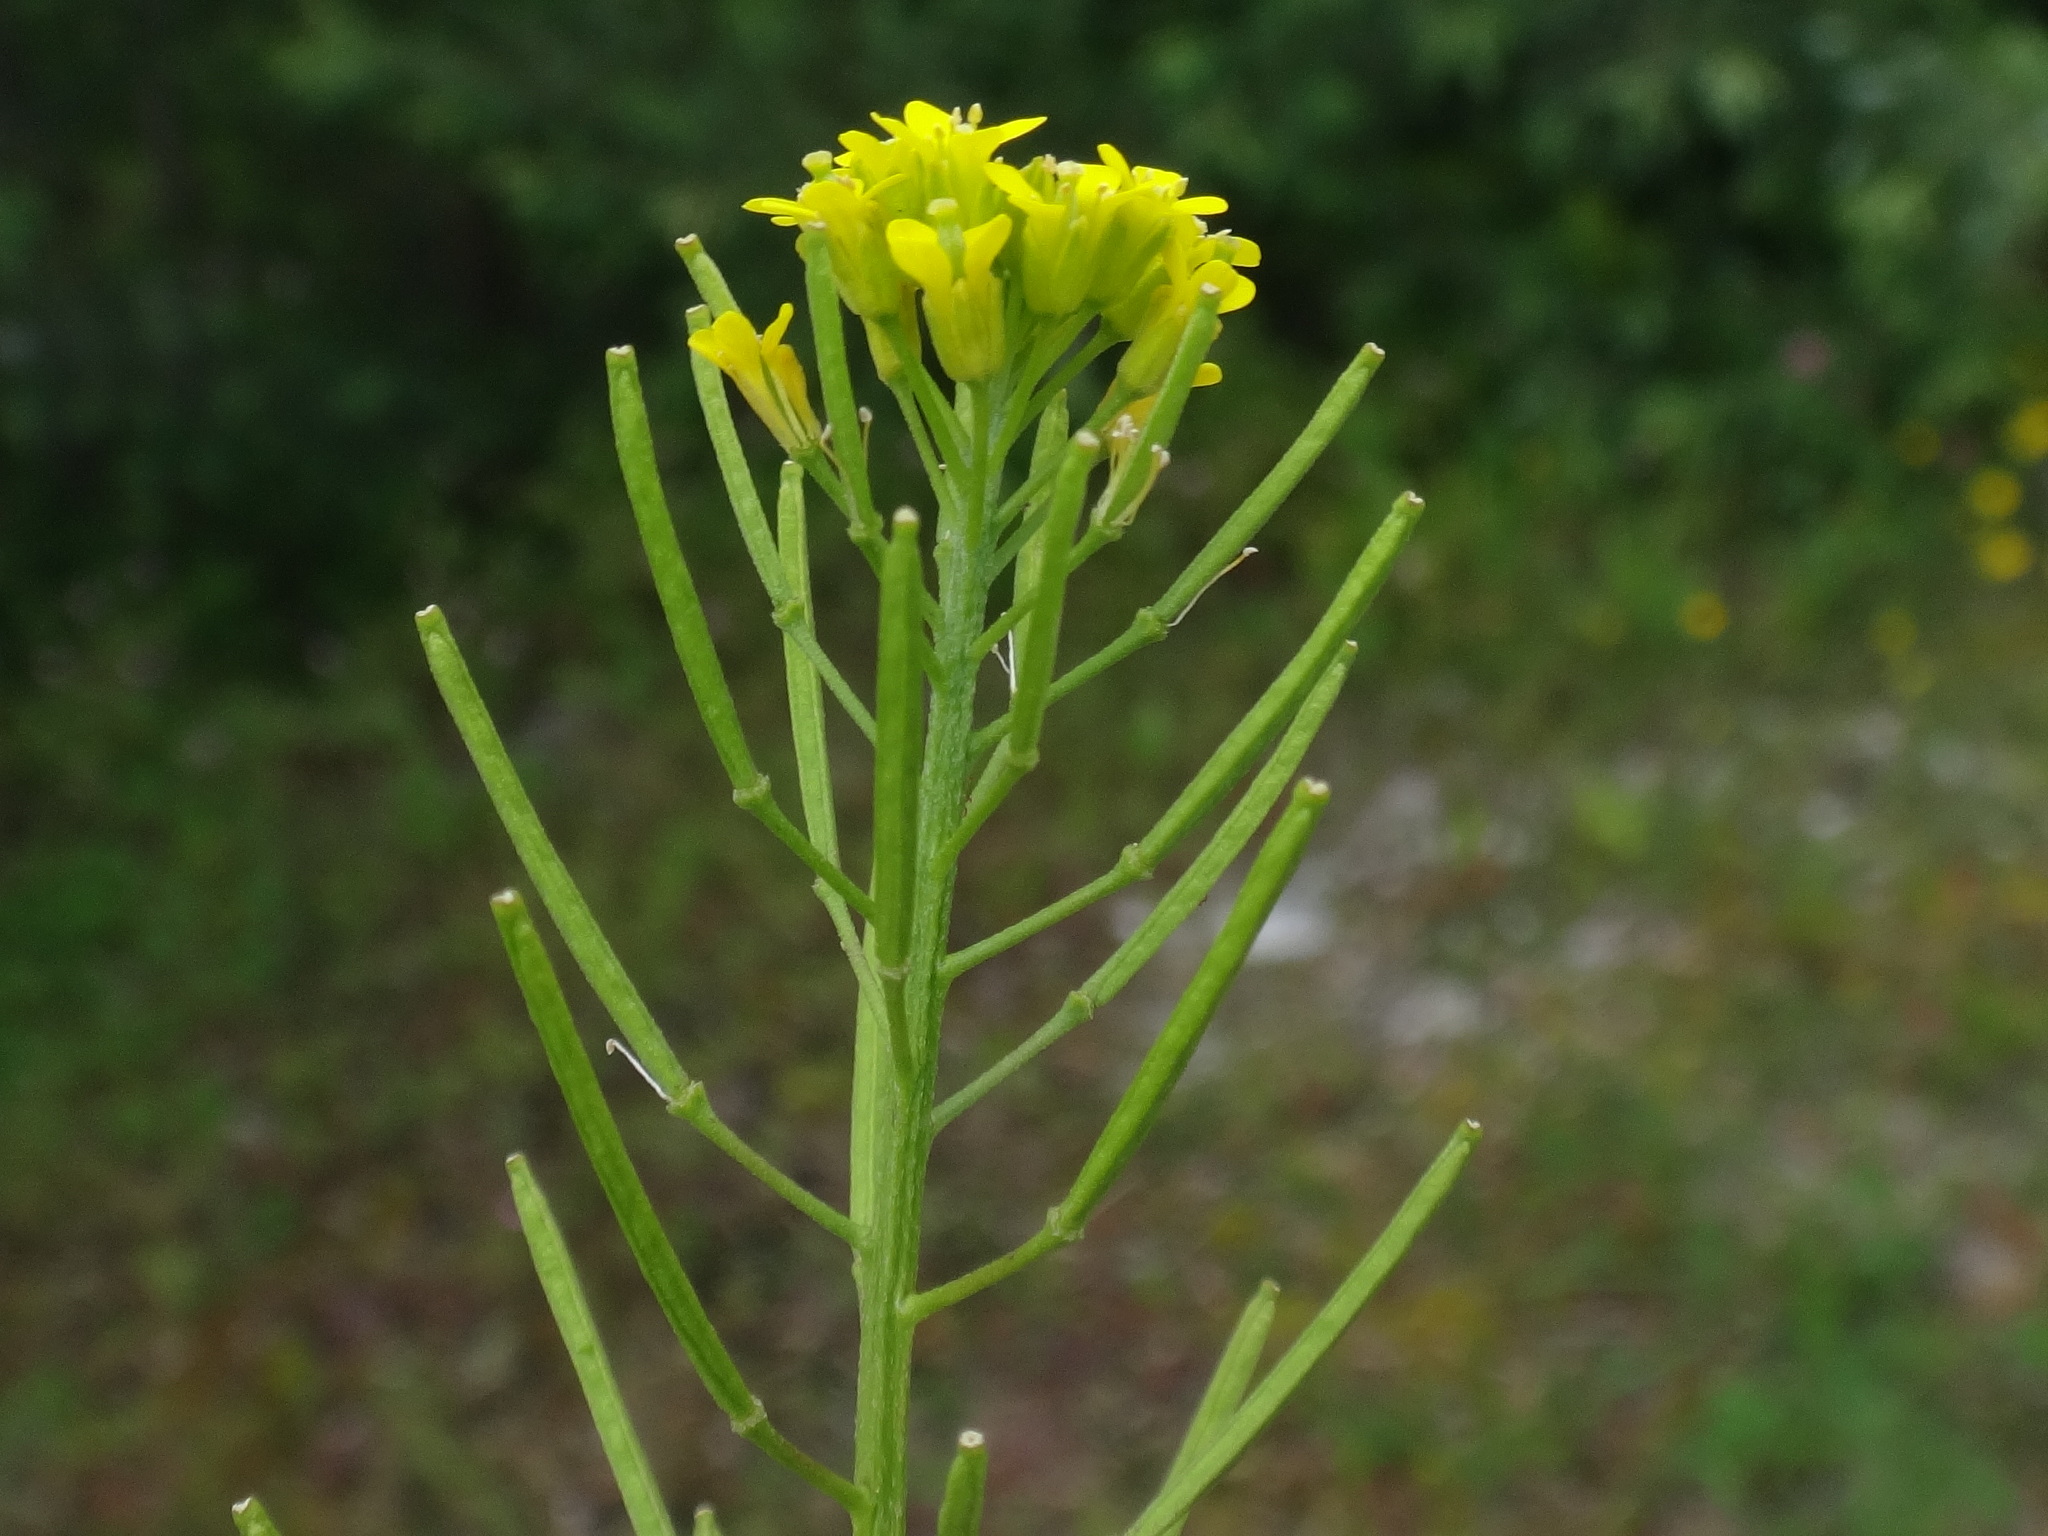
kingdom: Plantae
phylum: Tracheophyta
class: Magnoliopsida
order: Brassicales
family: Brassicaceae
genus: Erysimum
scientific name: Erysimum cheiranthoides
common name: Treacle mustard
